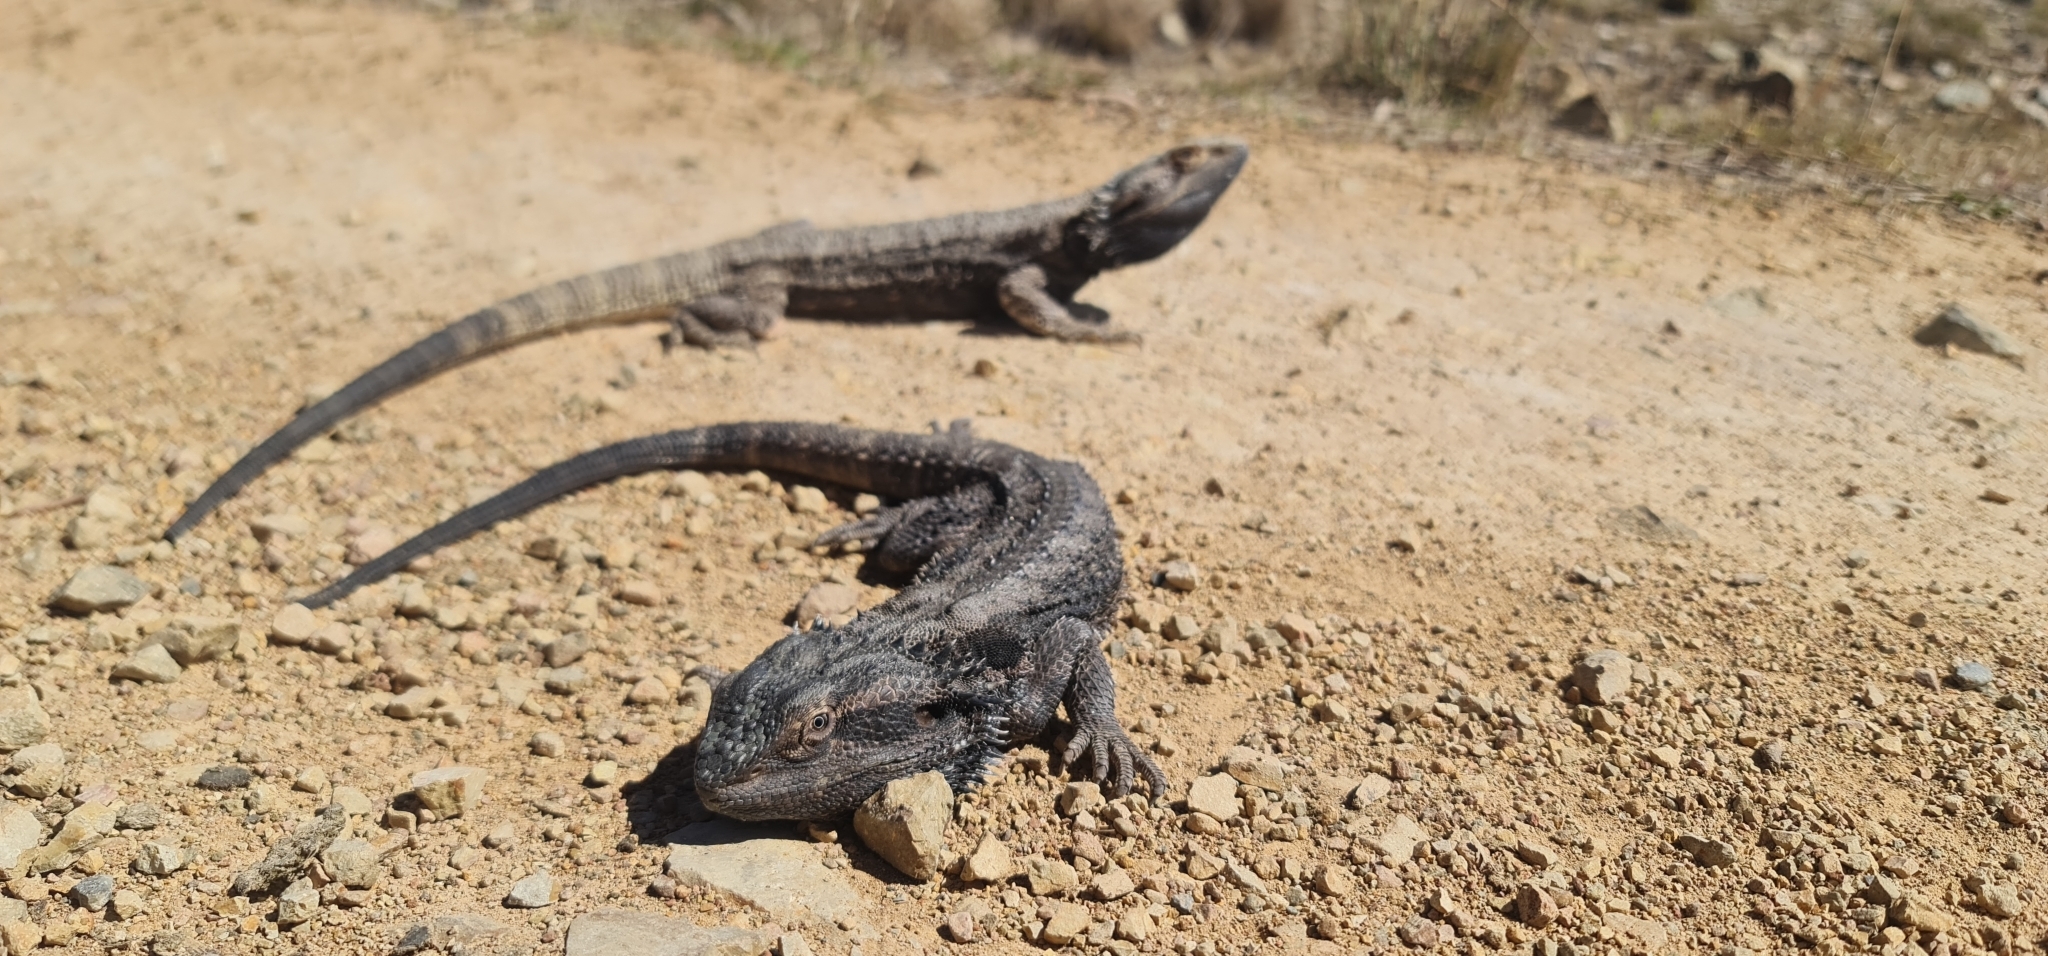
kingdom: Animalia
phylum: Chordata
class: Squamata
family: Agamidae
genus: Pogona
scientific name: Pogona barbata
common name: Bearded dragon
